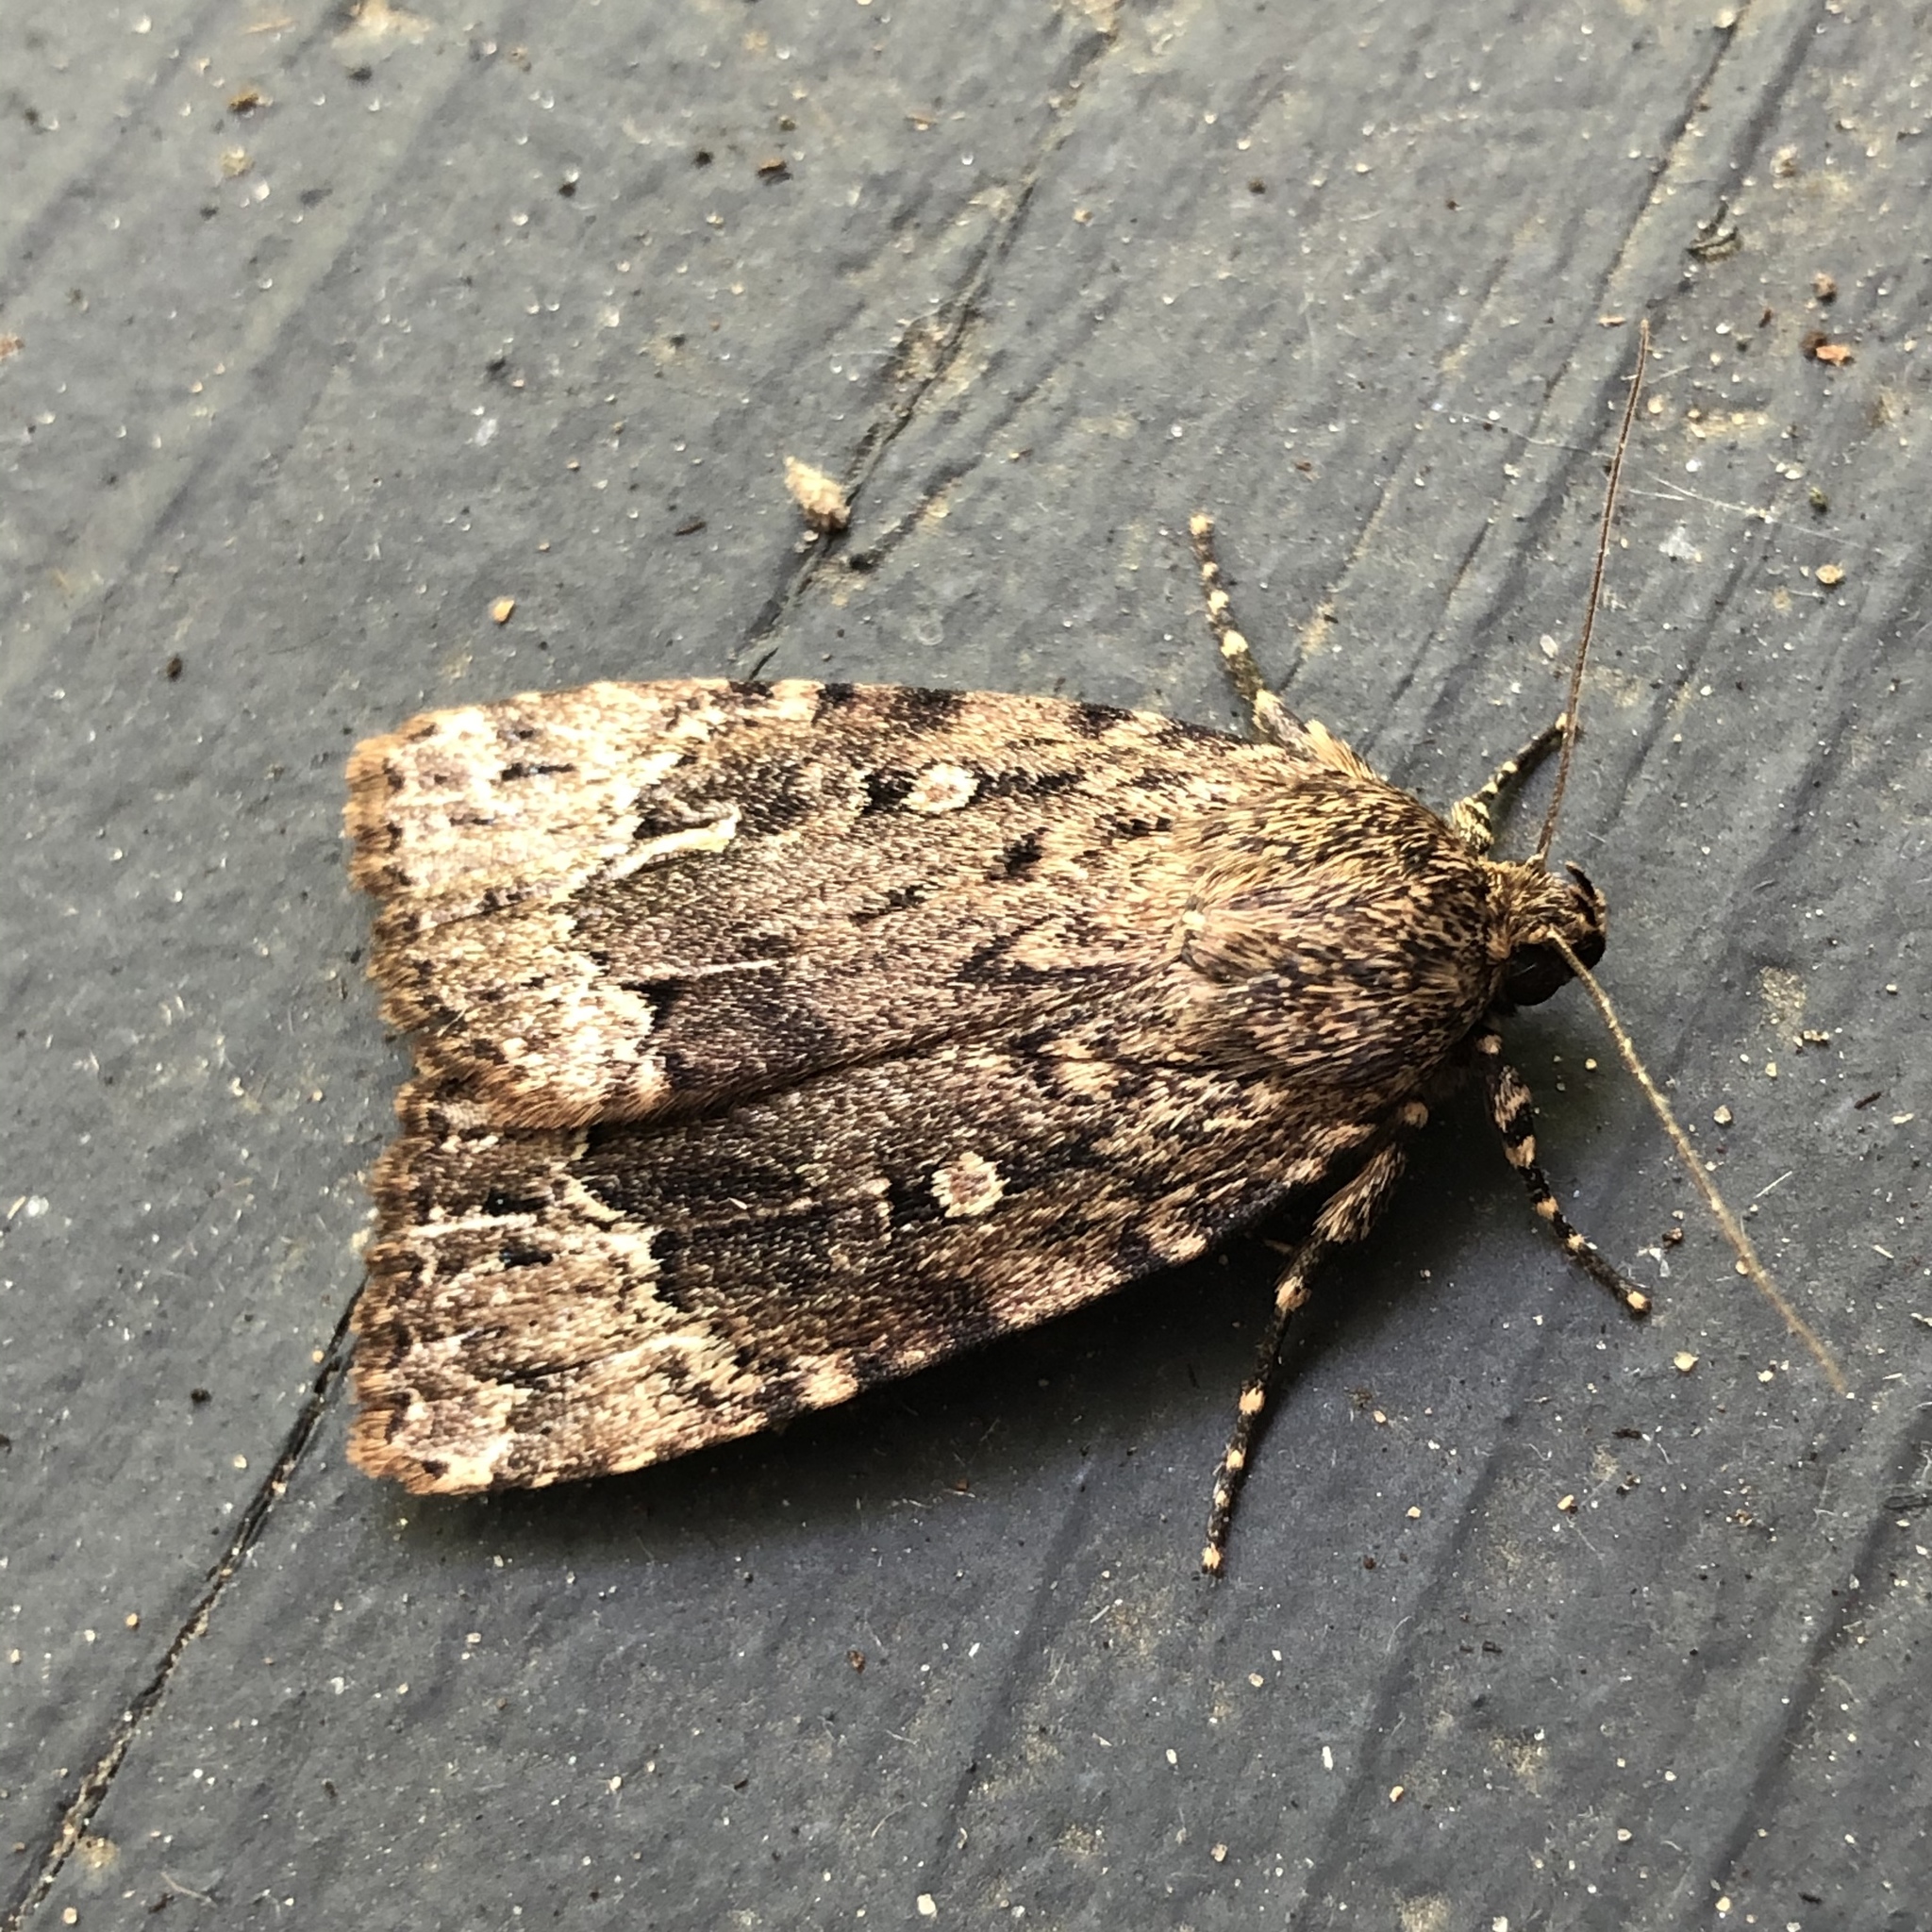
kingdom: Animalia
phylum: Arthropoda
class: Insecta
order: Lepidoptera
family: Noctuidae
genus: Amphipyra
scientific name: Amphipyra pyramidoides
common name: American copper underwing
